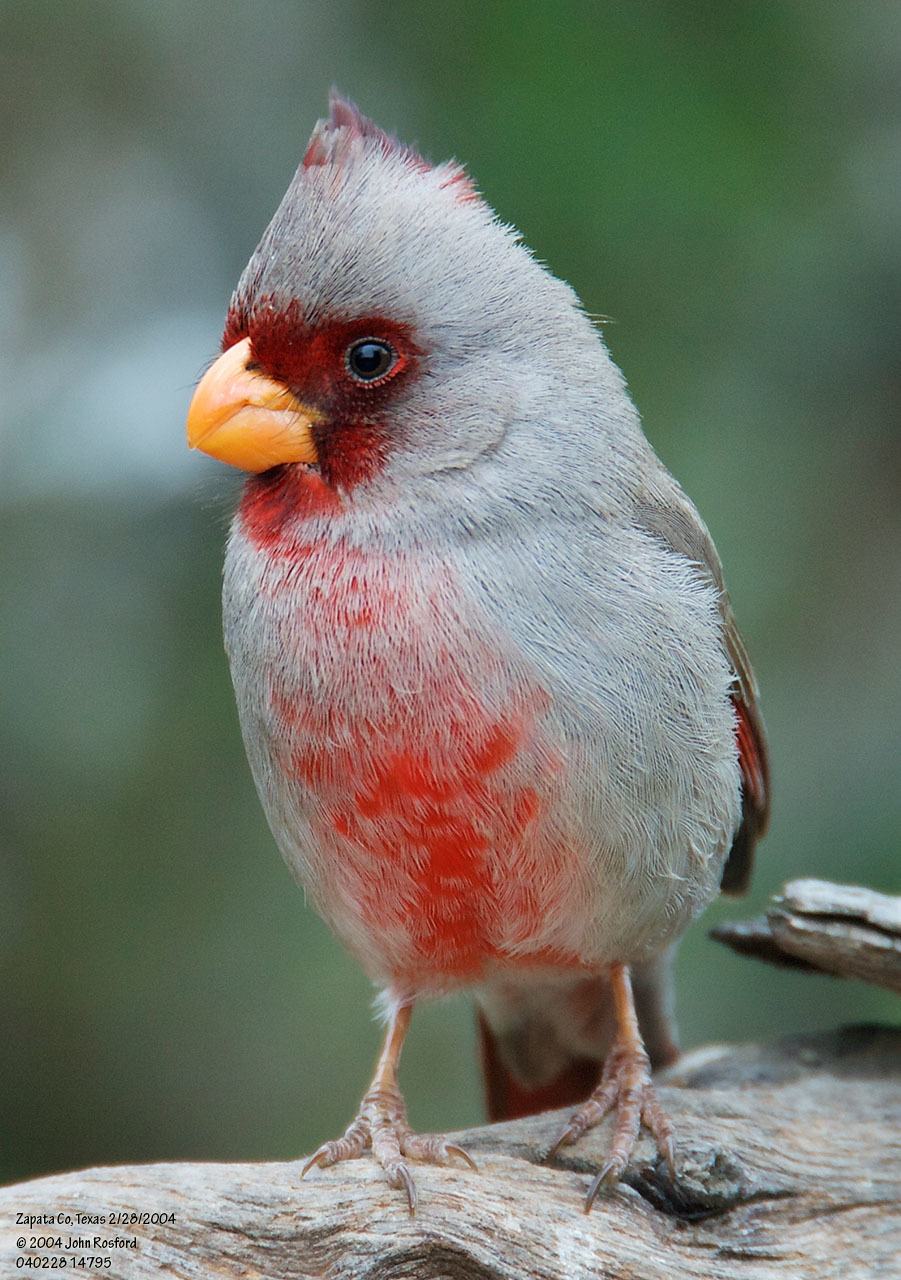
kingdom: Animalia
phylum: Chordata
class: Aves
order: Passeriformes
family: Cardinalidae
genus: Cardinalis
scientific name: Cardinalis sinuatus
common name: Pyrrhuloxia
